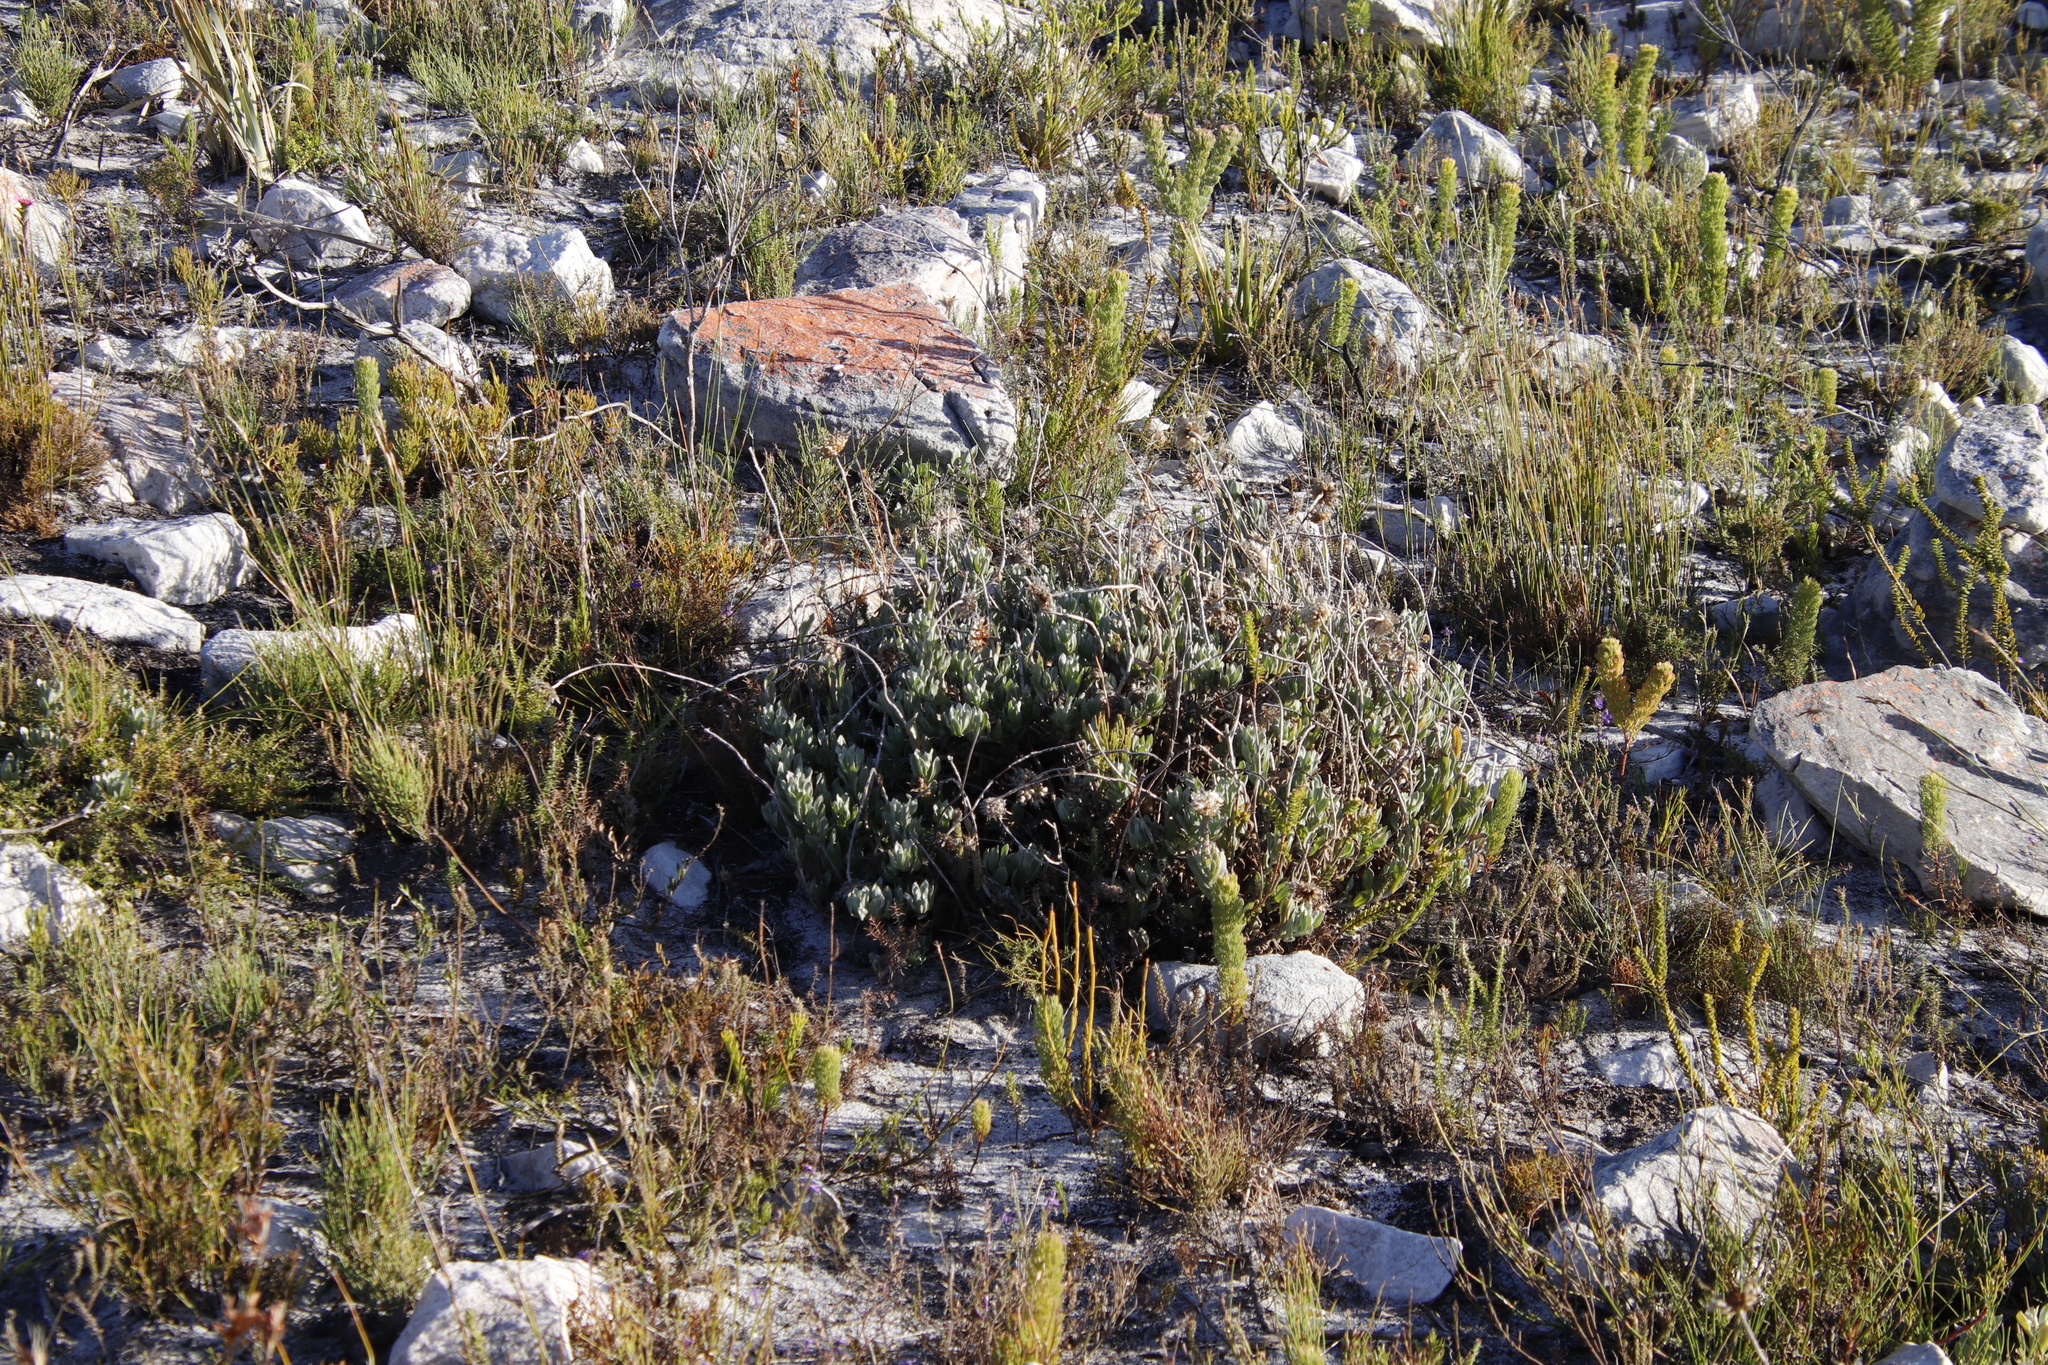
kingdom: Plantae
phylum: Tracheophyta
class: Magnoliopsida
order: Asterales
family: Asteraceae
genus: Syncarpha
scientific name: Syncarpha speciosissima
